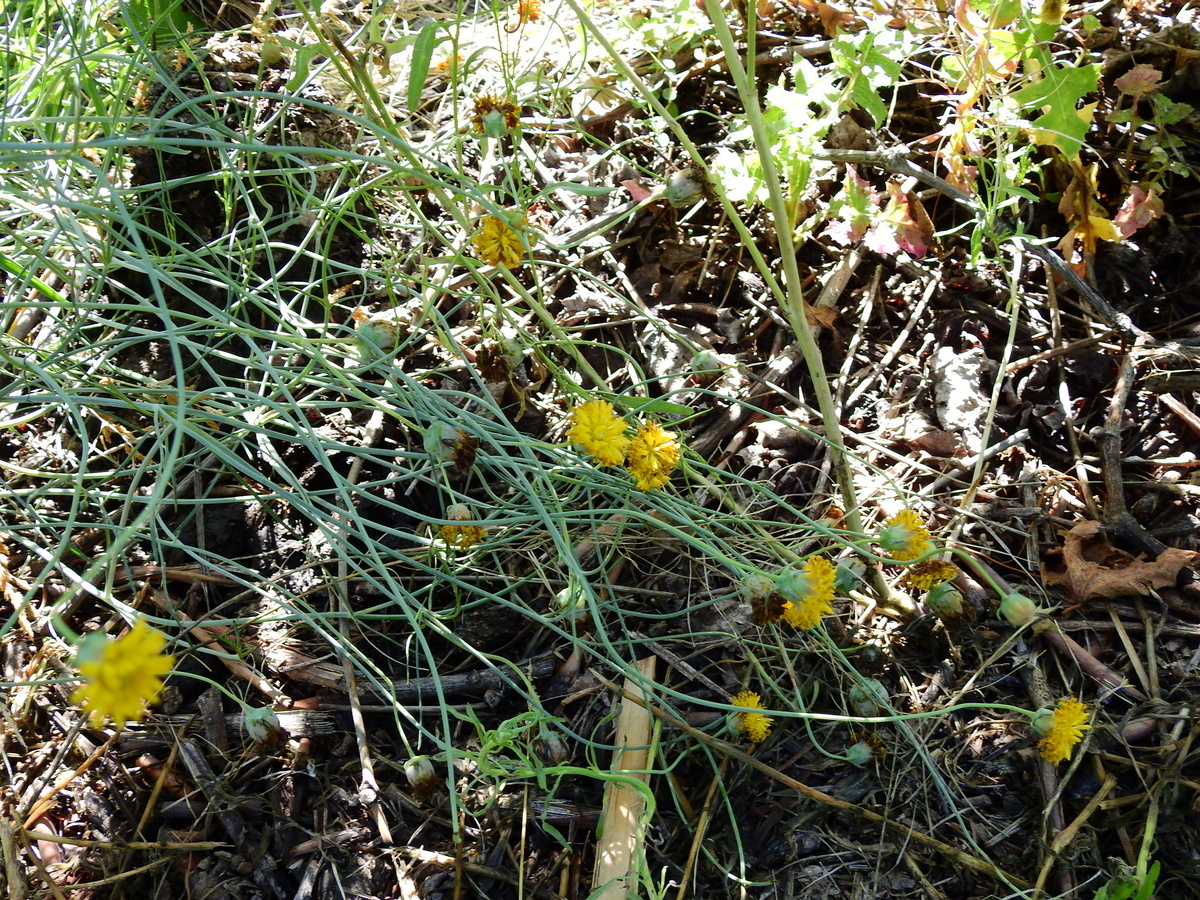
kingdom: Plantae
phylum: Tracheophyta
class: Magnoliopsida
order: Asterales
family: Asteraceae
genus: Thelesperma
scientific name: Thelesperma megapotamicum
